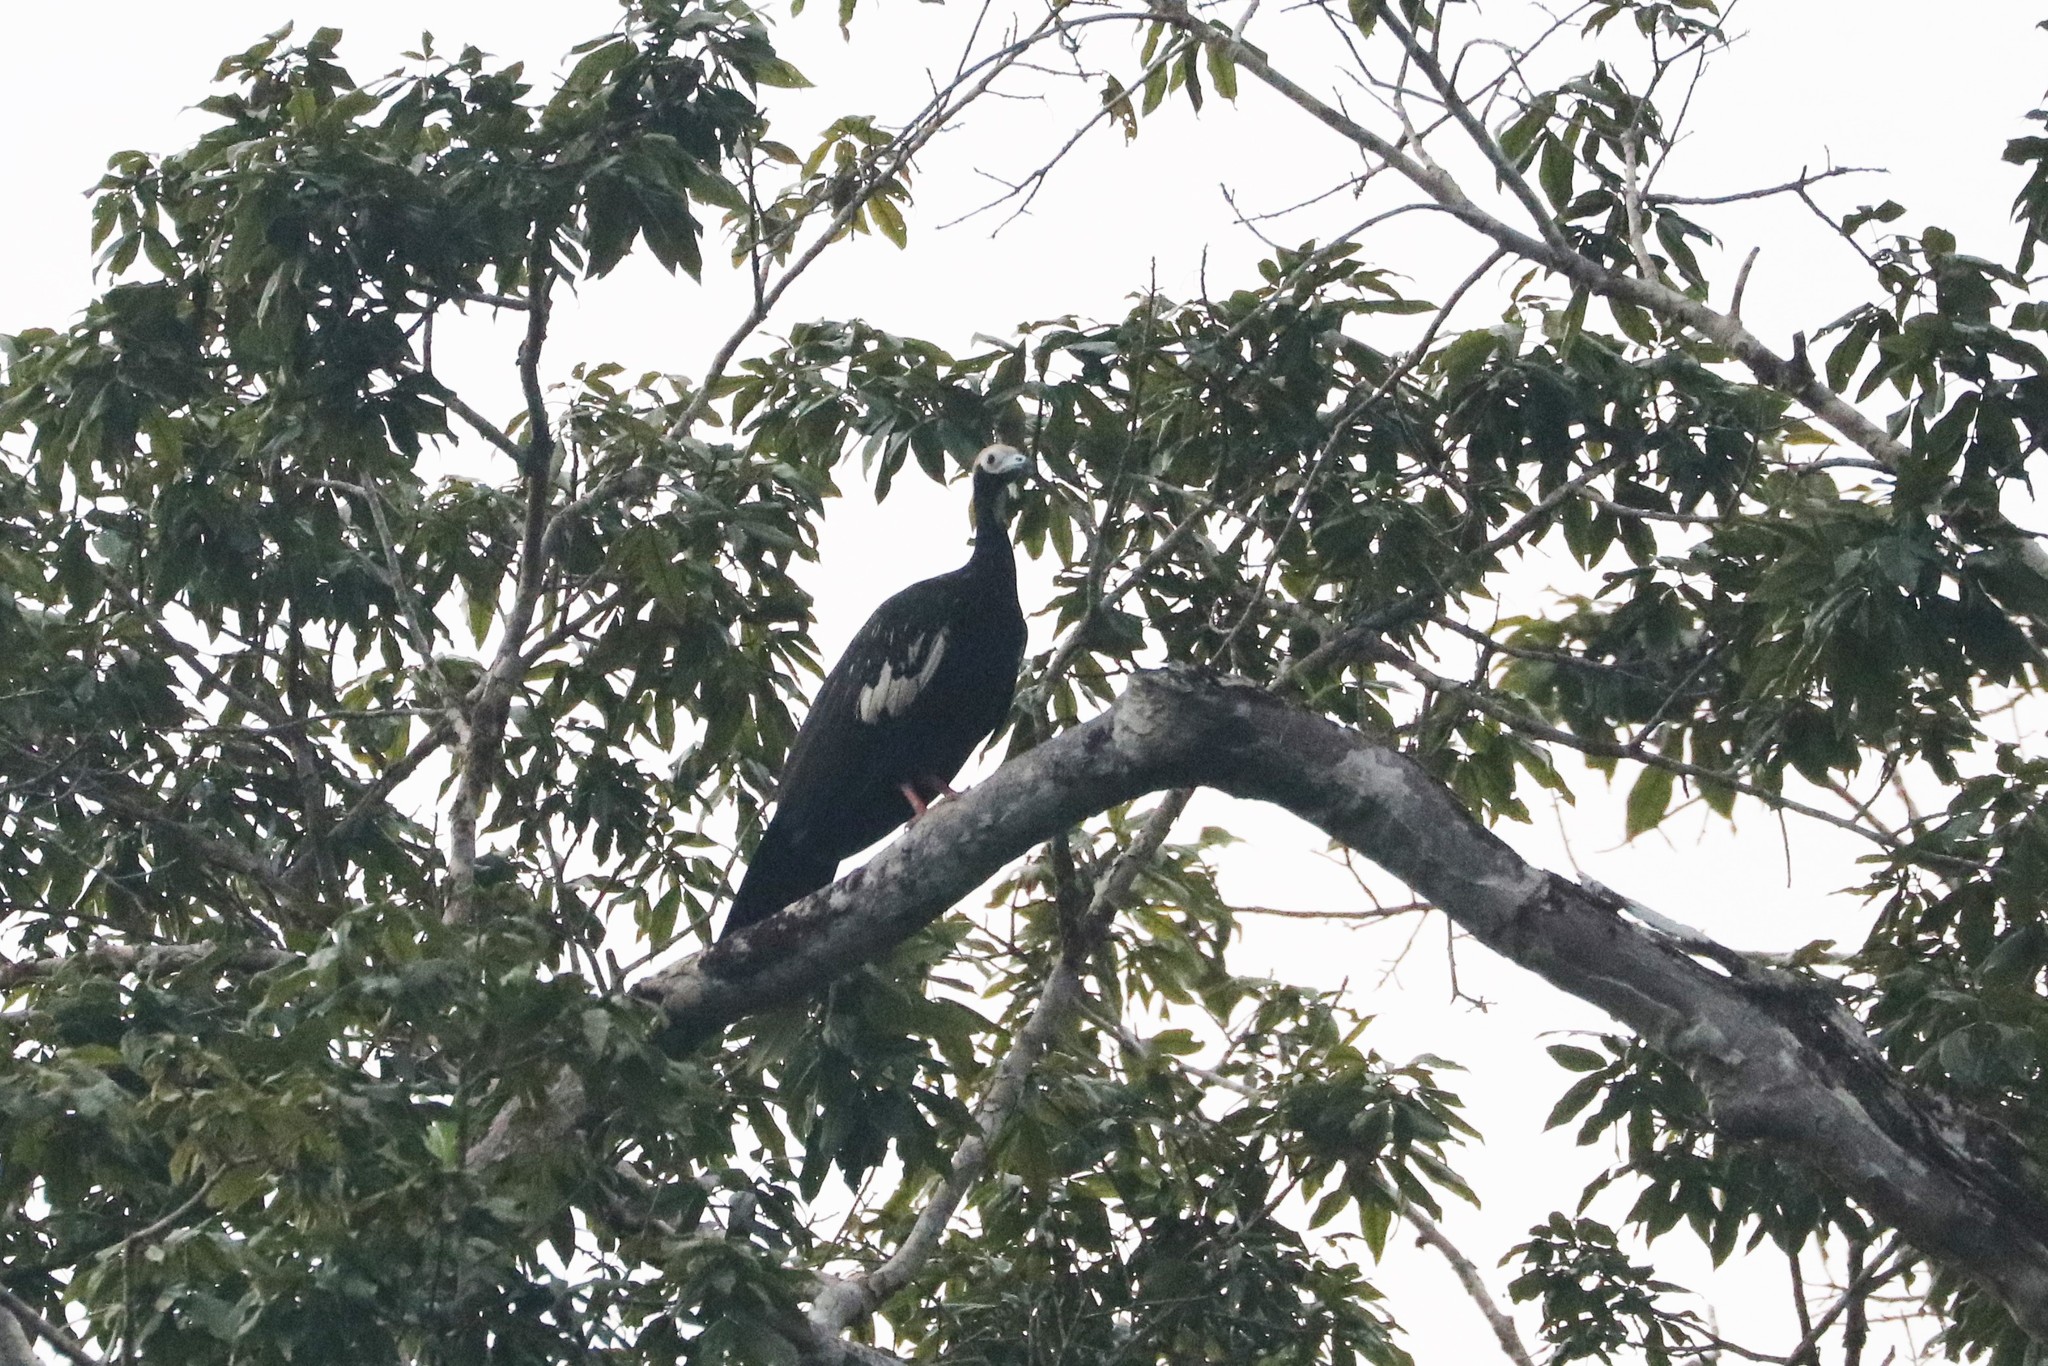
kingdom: Animalia
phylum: Chordata
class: Aves
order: Galliformes
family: Cracidae
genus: Pipile
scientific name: Pipile cumanensis
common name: Blue-throated piping-guan
